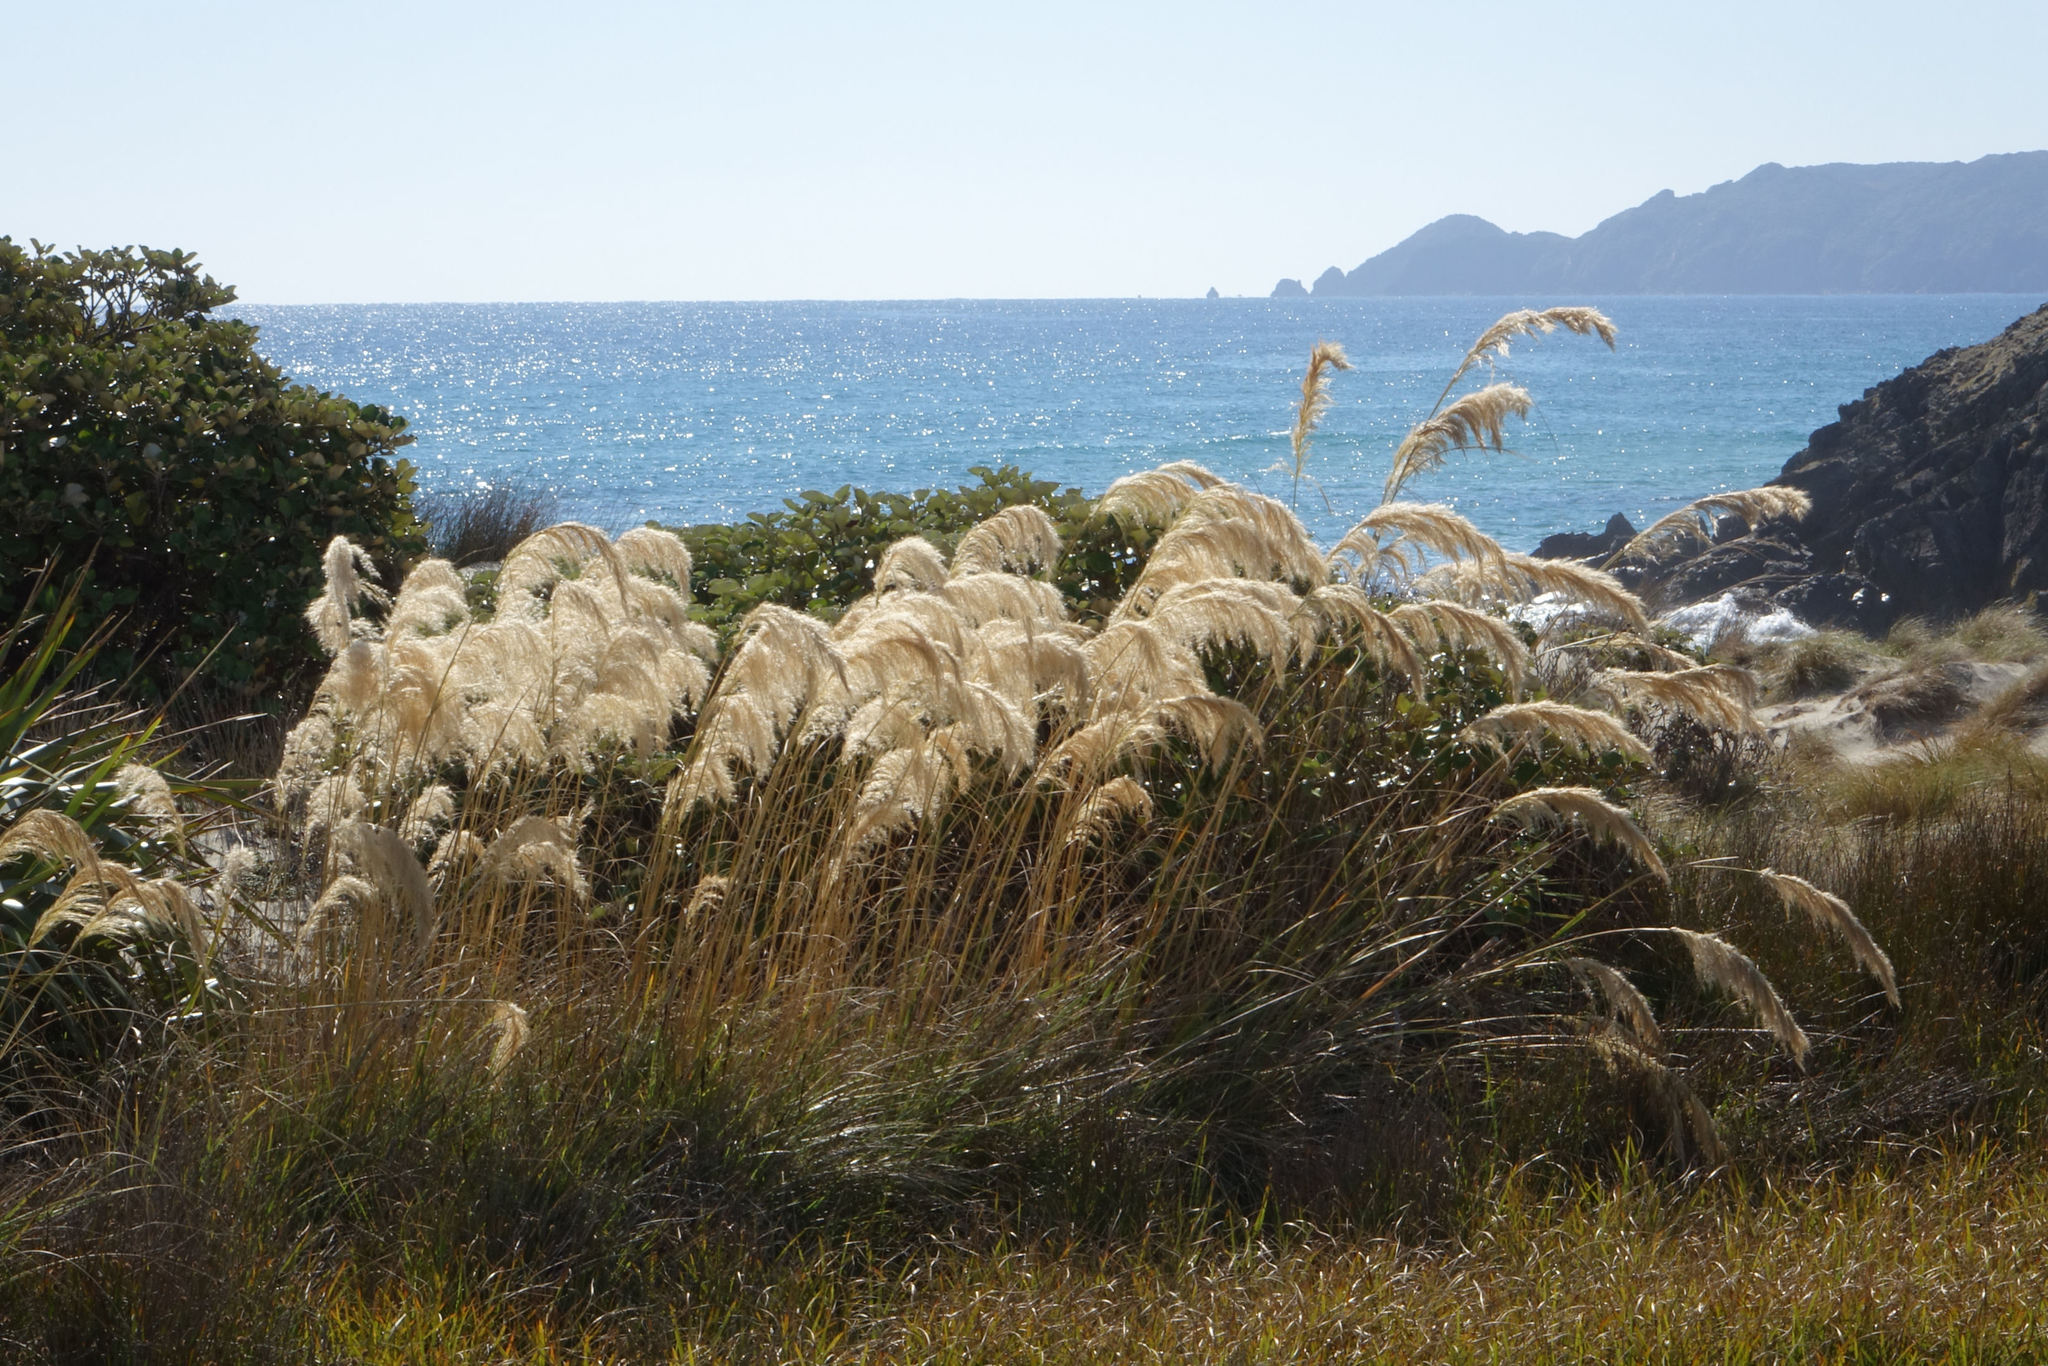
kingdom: Plantae
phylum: Tracheophyta
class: Liliopsida
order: Poales
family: Poaceae
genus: Austroderia
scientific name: Austroderia richardii
